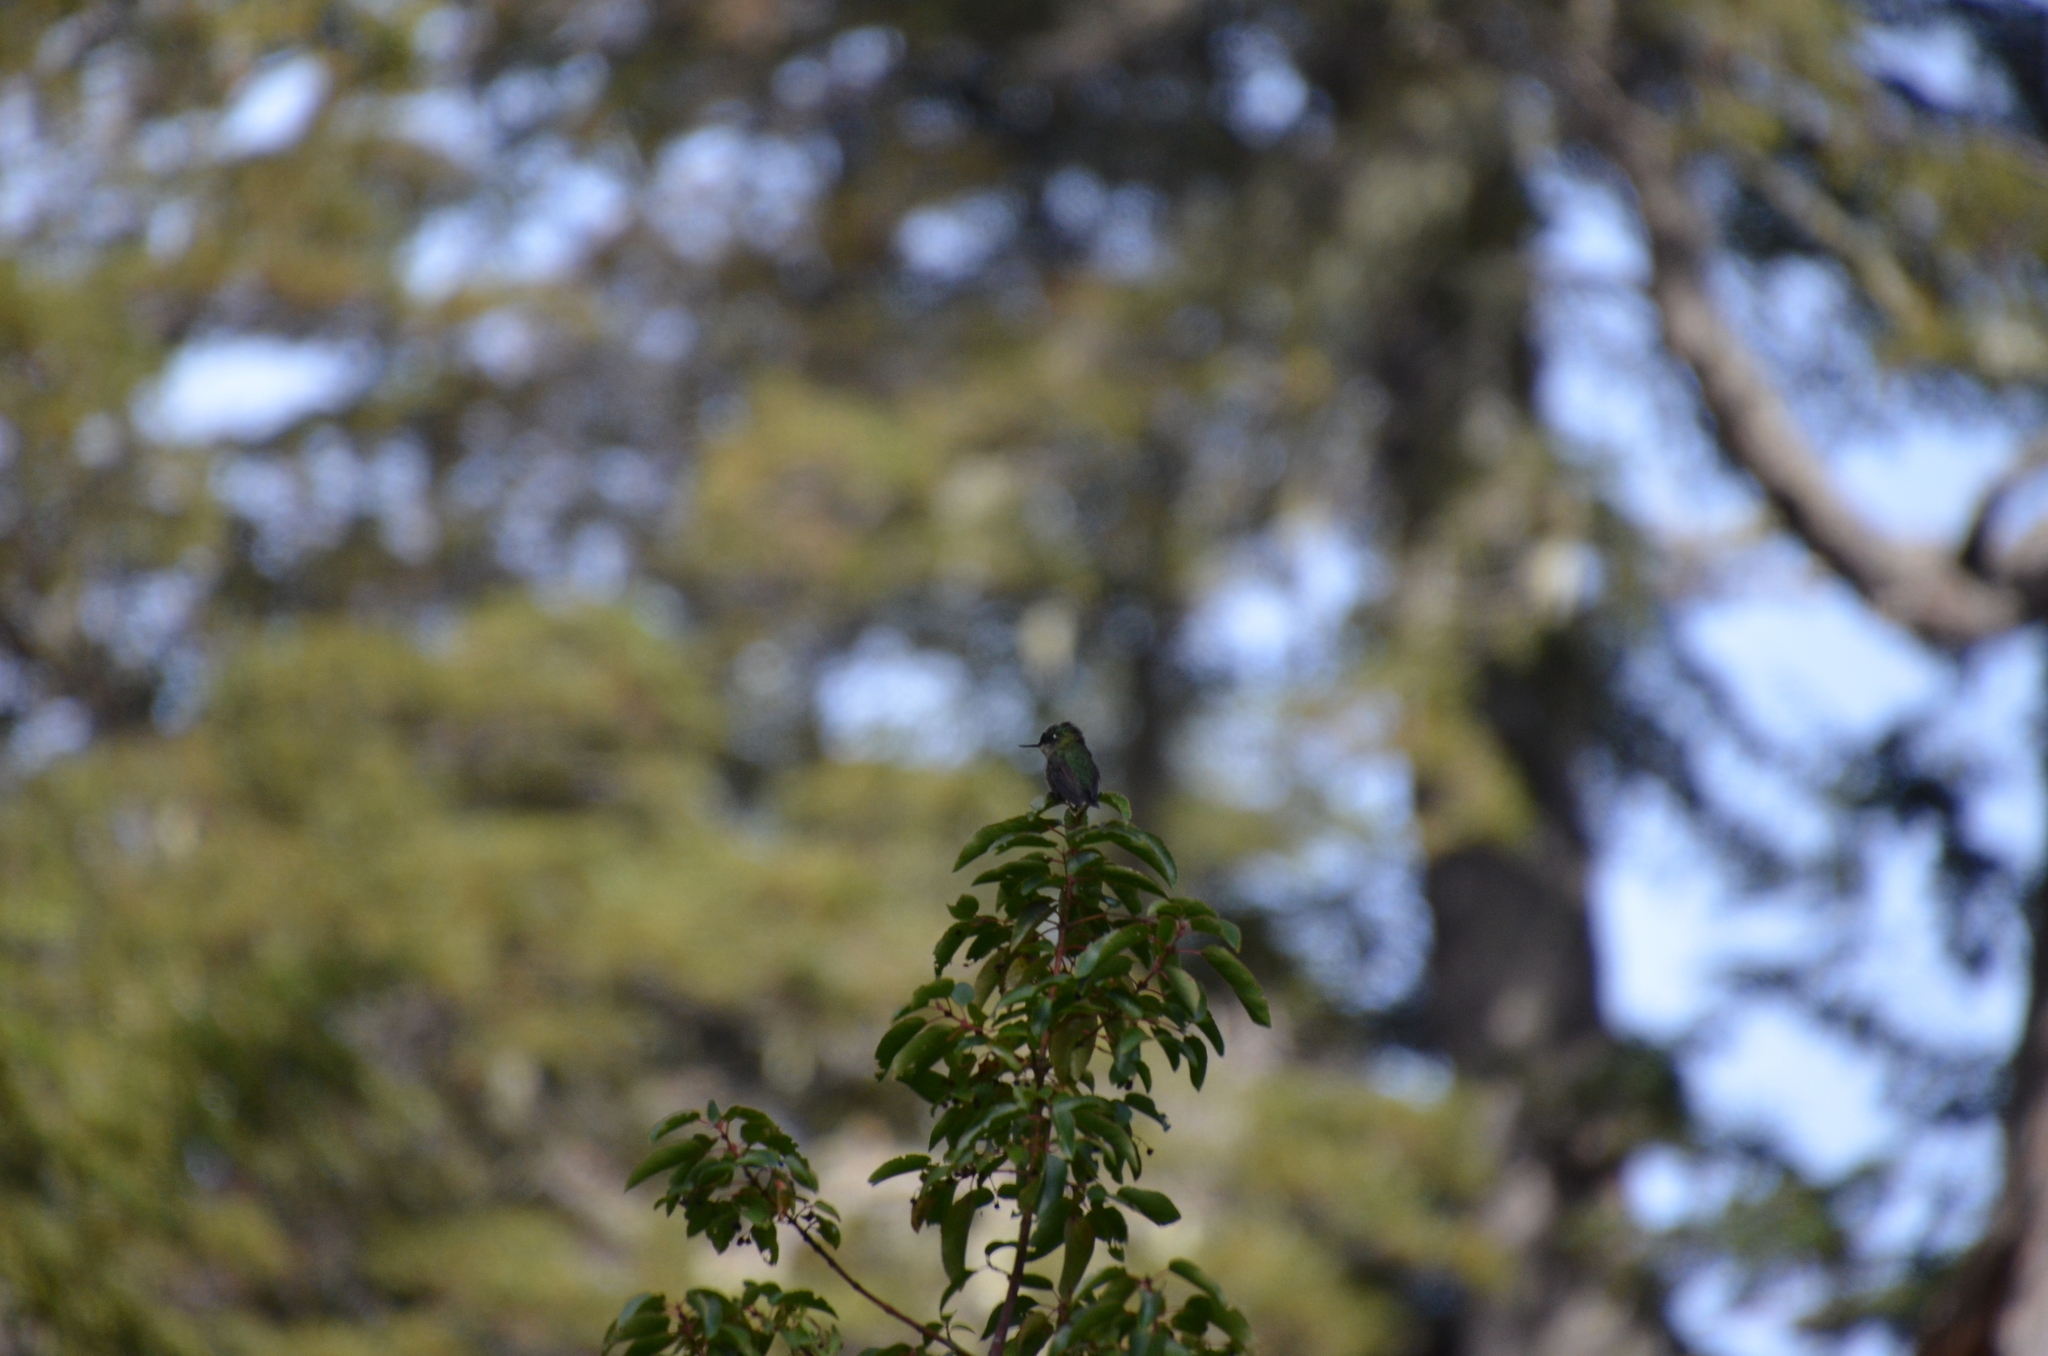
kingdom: Animalia
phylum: Chordata
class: Aves
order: Apodiformes
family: Trochilidae
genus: Sephanoides
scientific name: Sephanoides sephaniodes
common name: Green-backed firecrown
